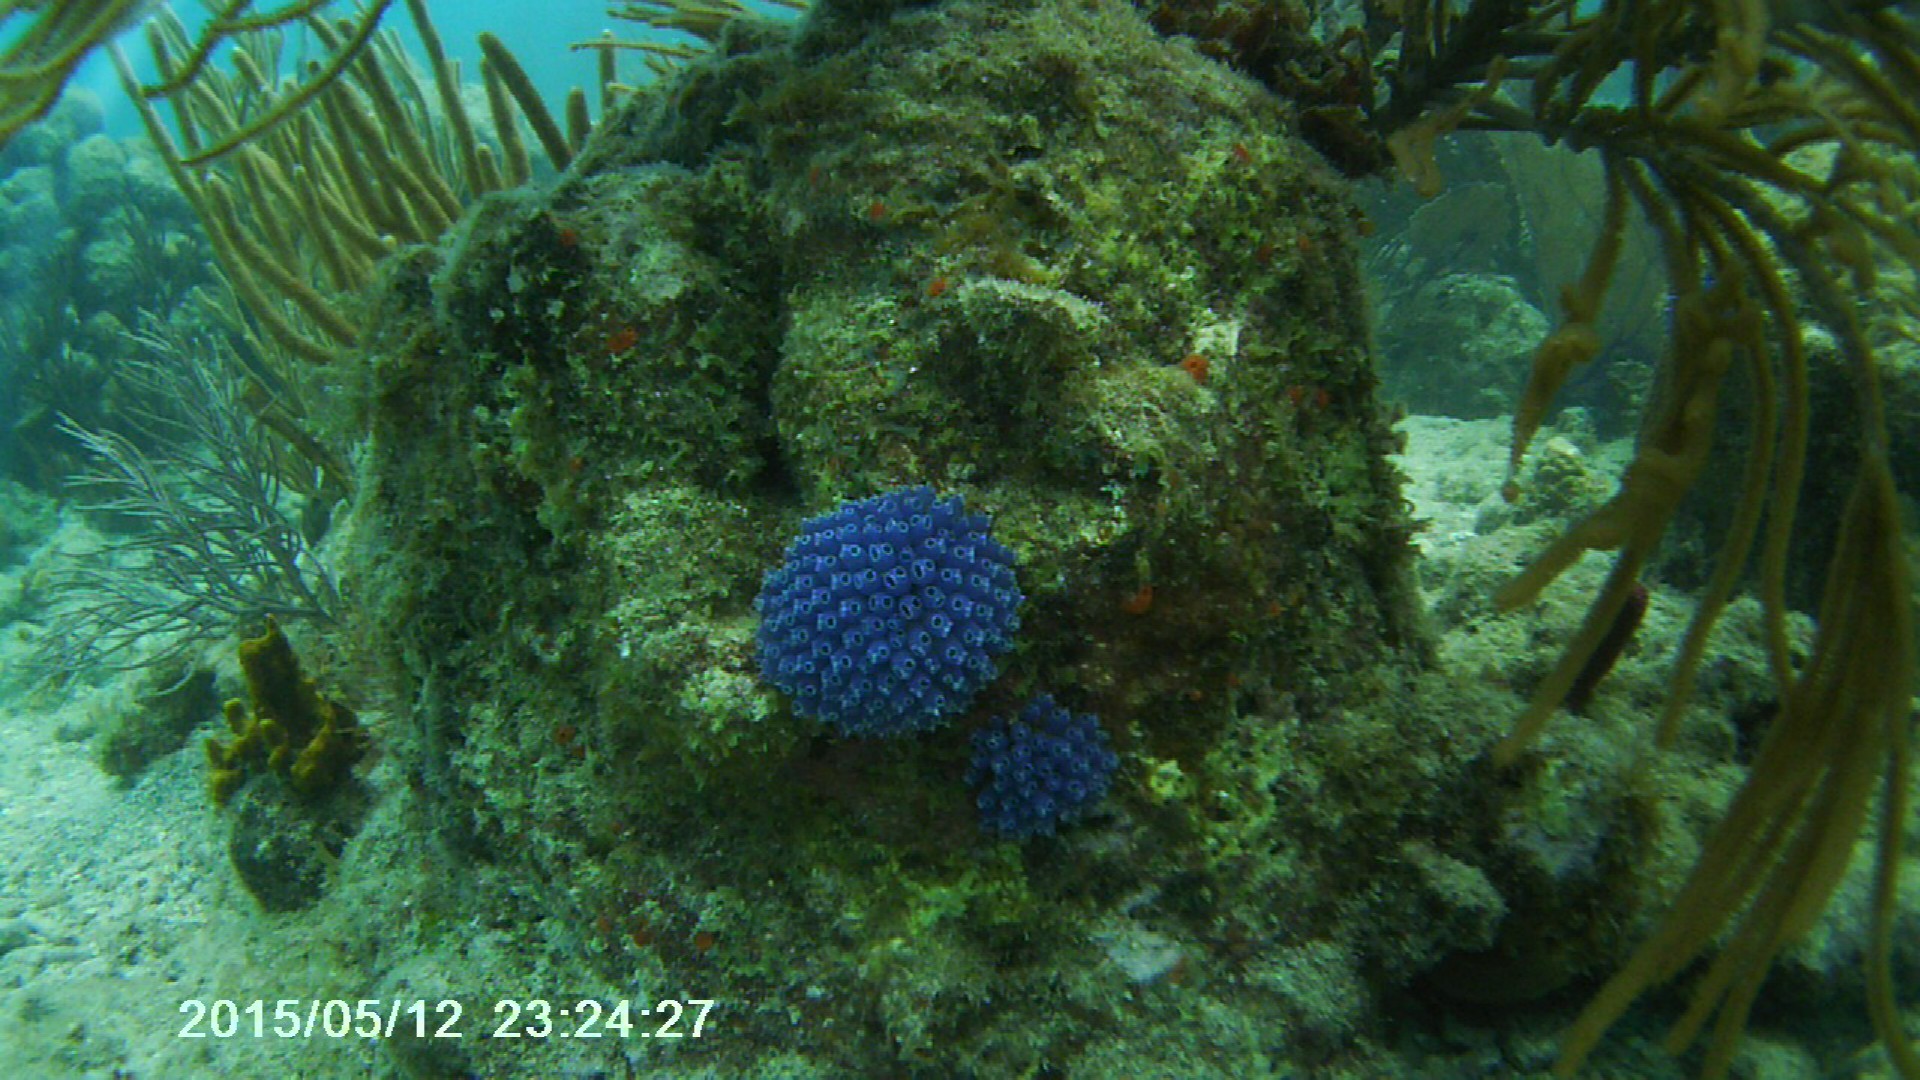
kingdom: Animalia
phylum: Chordata
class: Ascidiacea
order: Aplousobranchia
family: Clavelinidae
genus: Clavelina
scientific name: Clavelina puertosecensis
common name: Blue bell tunicate
